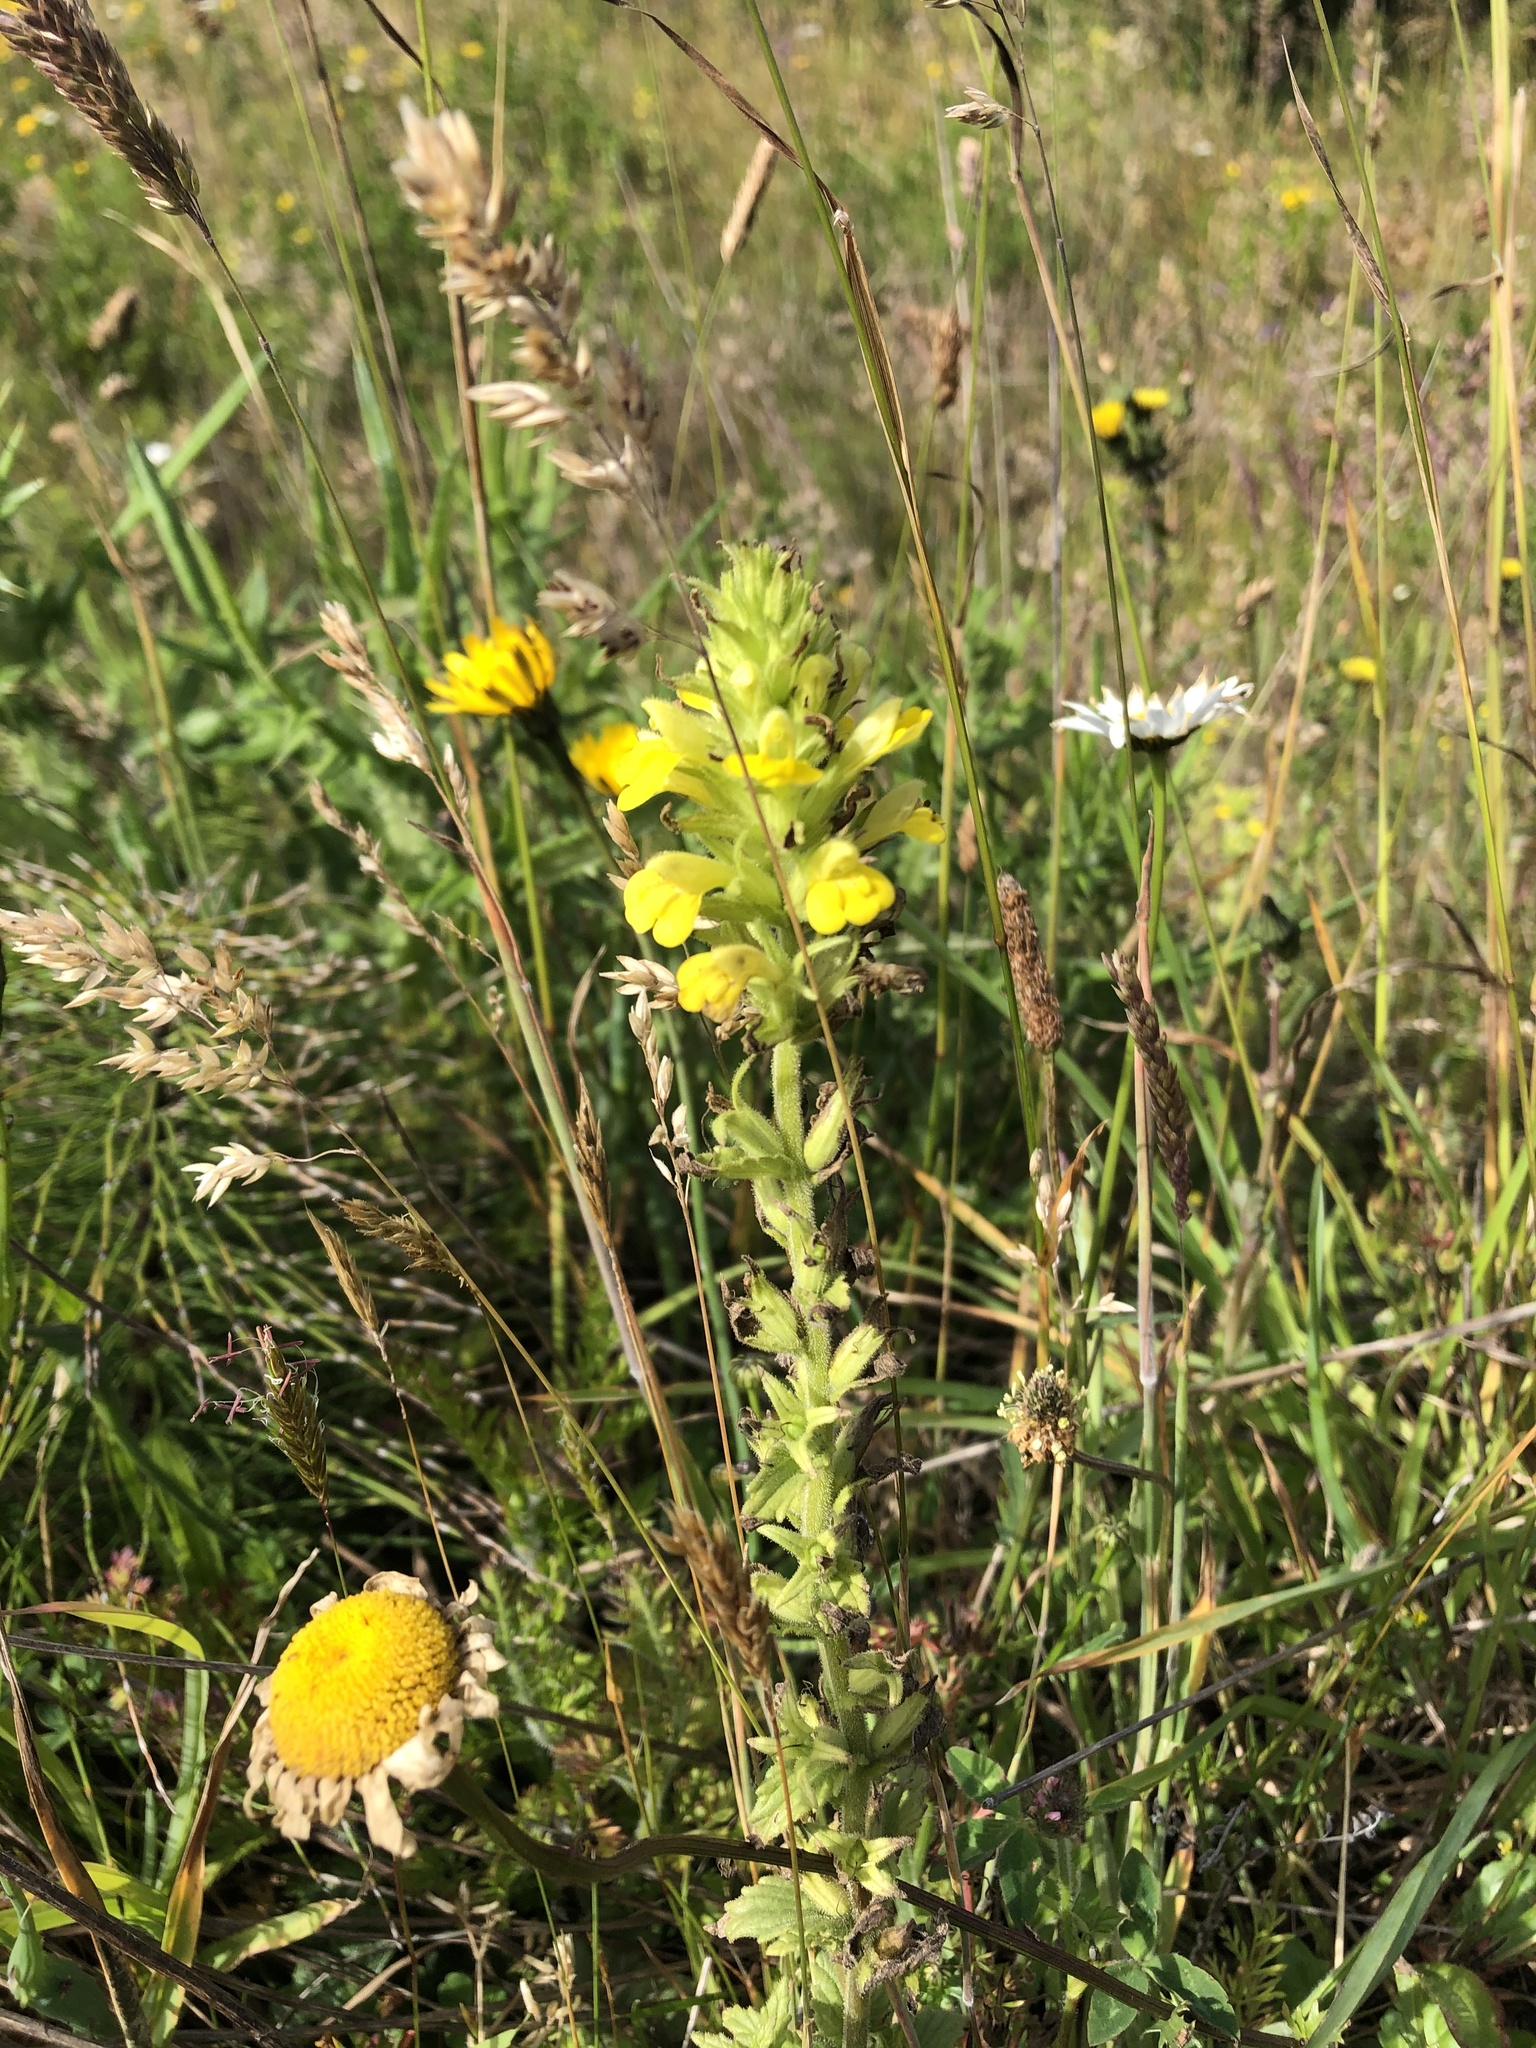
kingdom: Plantae
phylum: Tracheophyta
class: Magnoliopsida
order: Lamiales
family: Orobanchaceae
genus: Bellardia
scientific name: Bellardia viscosa
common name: Sticky parentucellia
